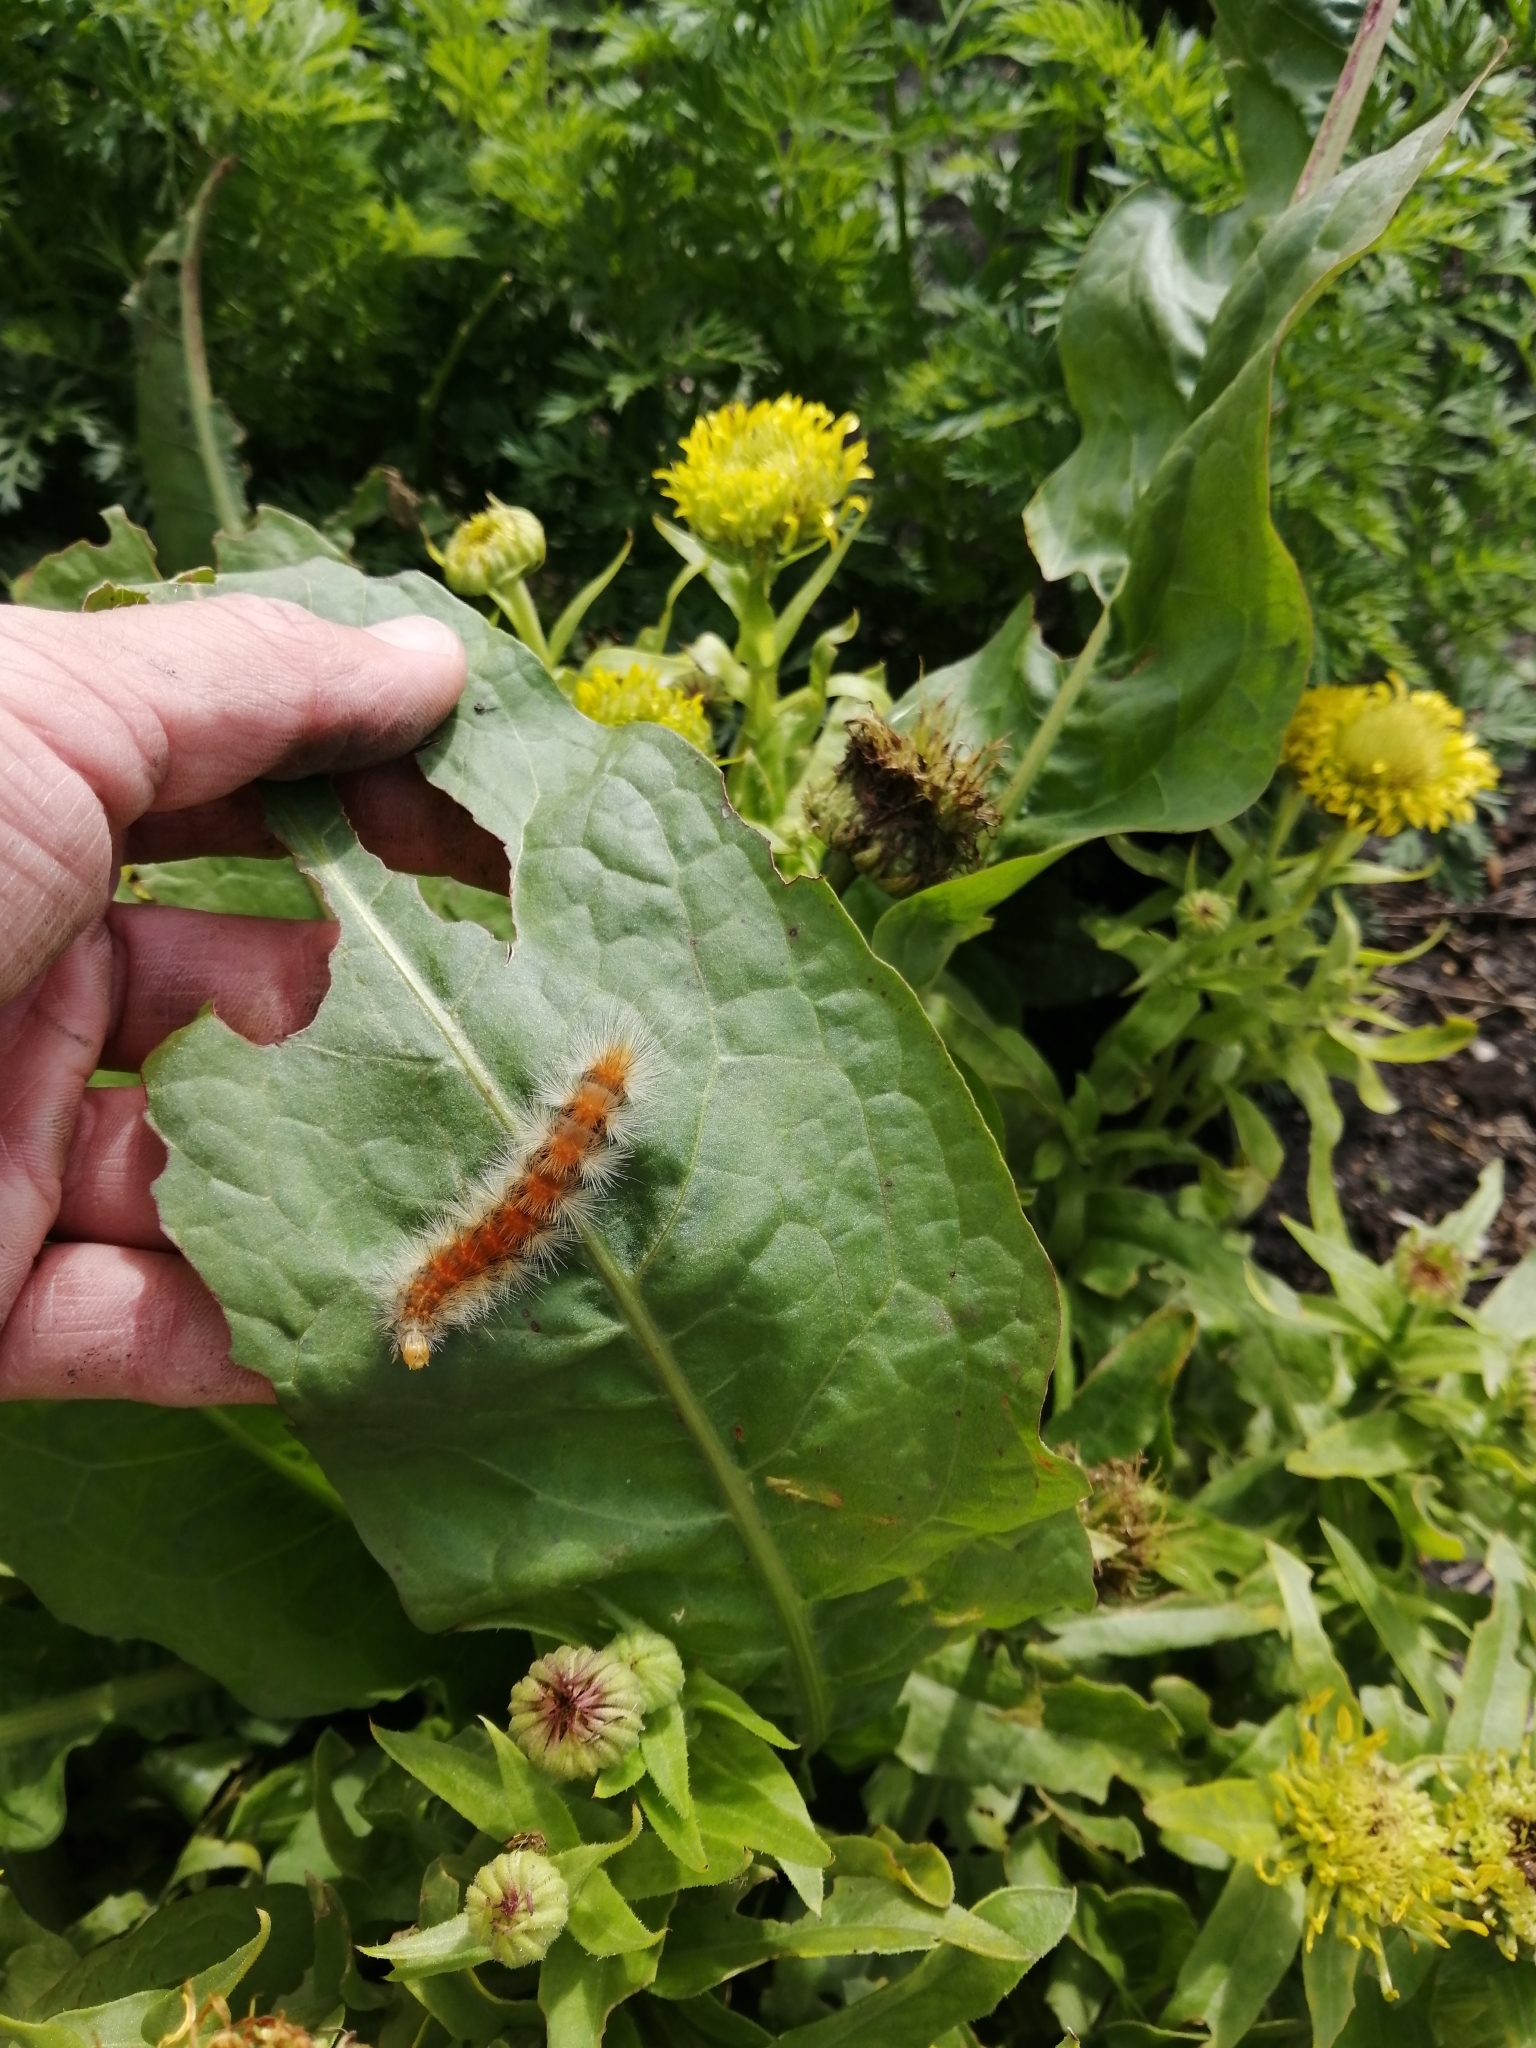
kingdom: Animalia
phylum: Arthropoda
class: Insecta
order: Lepidoptera
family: Erebidae
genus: Estigmene
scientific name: Estigmene acrea
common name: Salt marsh moth
